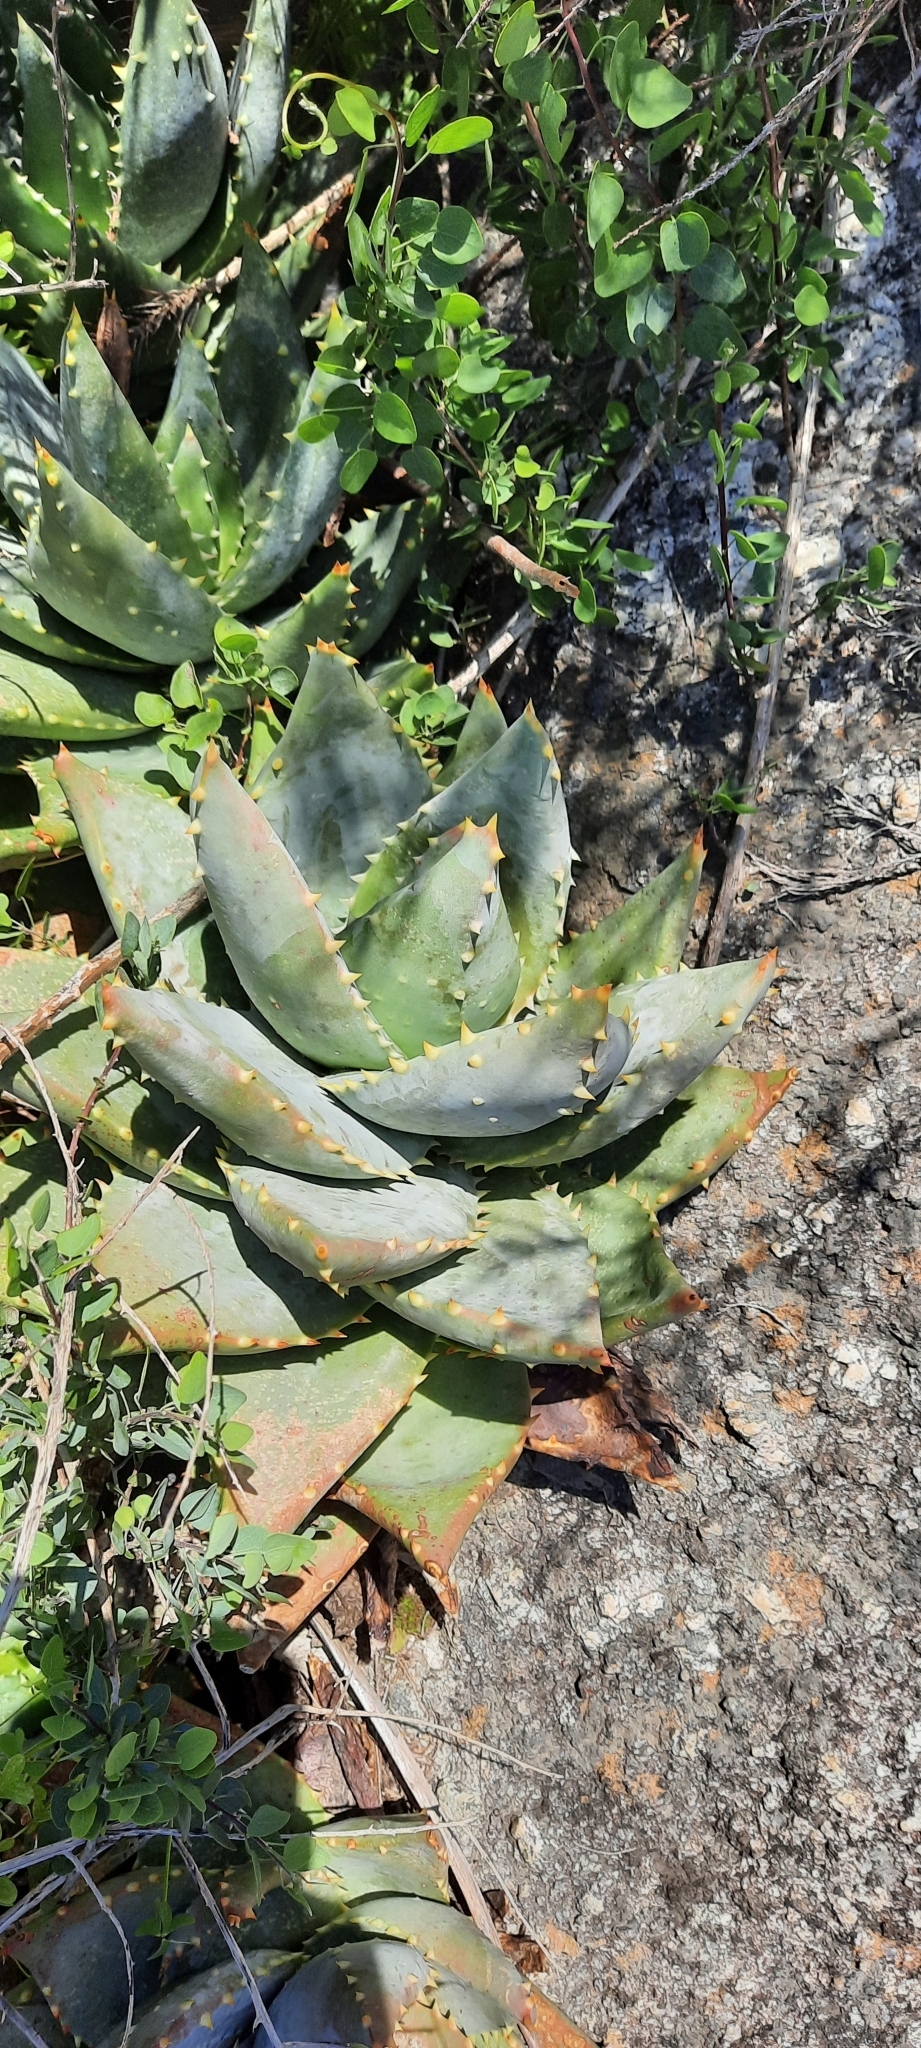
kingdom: Plantae
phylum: Tracheophyta
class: Liliopsida
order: Asparagales
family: Asphodelaceae
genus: Aloe
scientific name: Aloe perfoliata
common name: Mitra aloe
